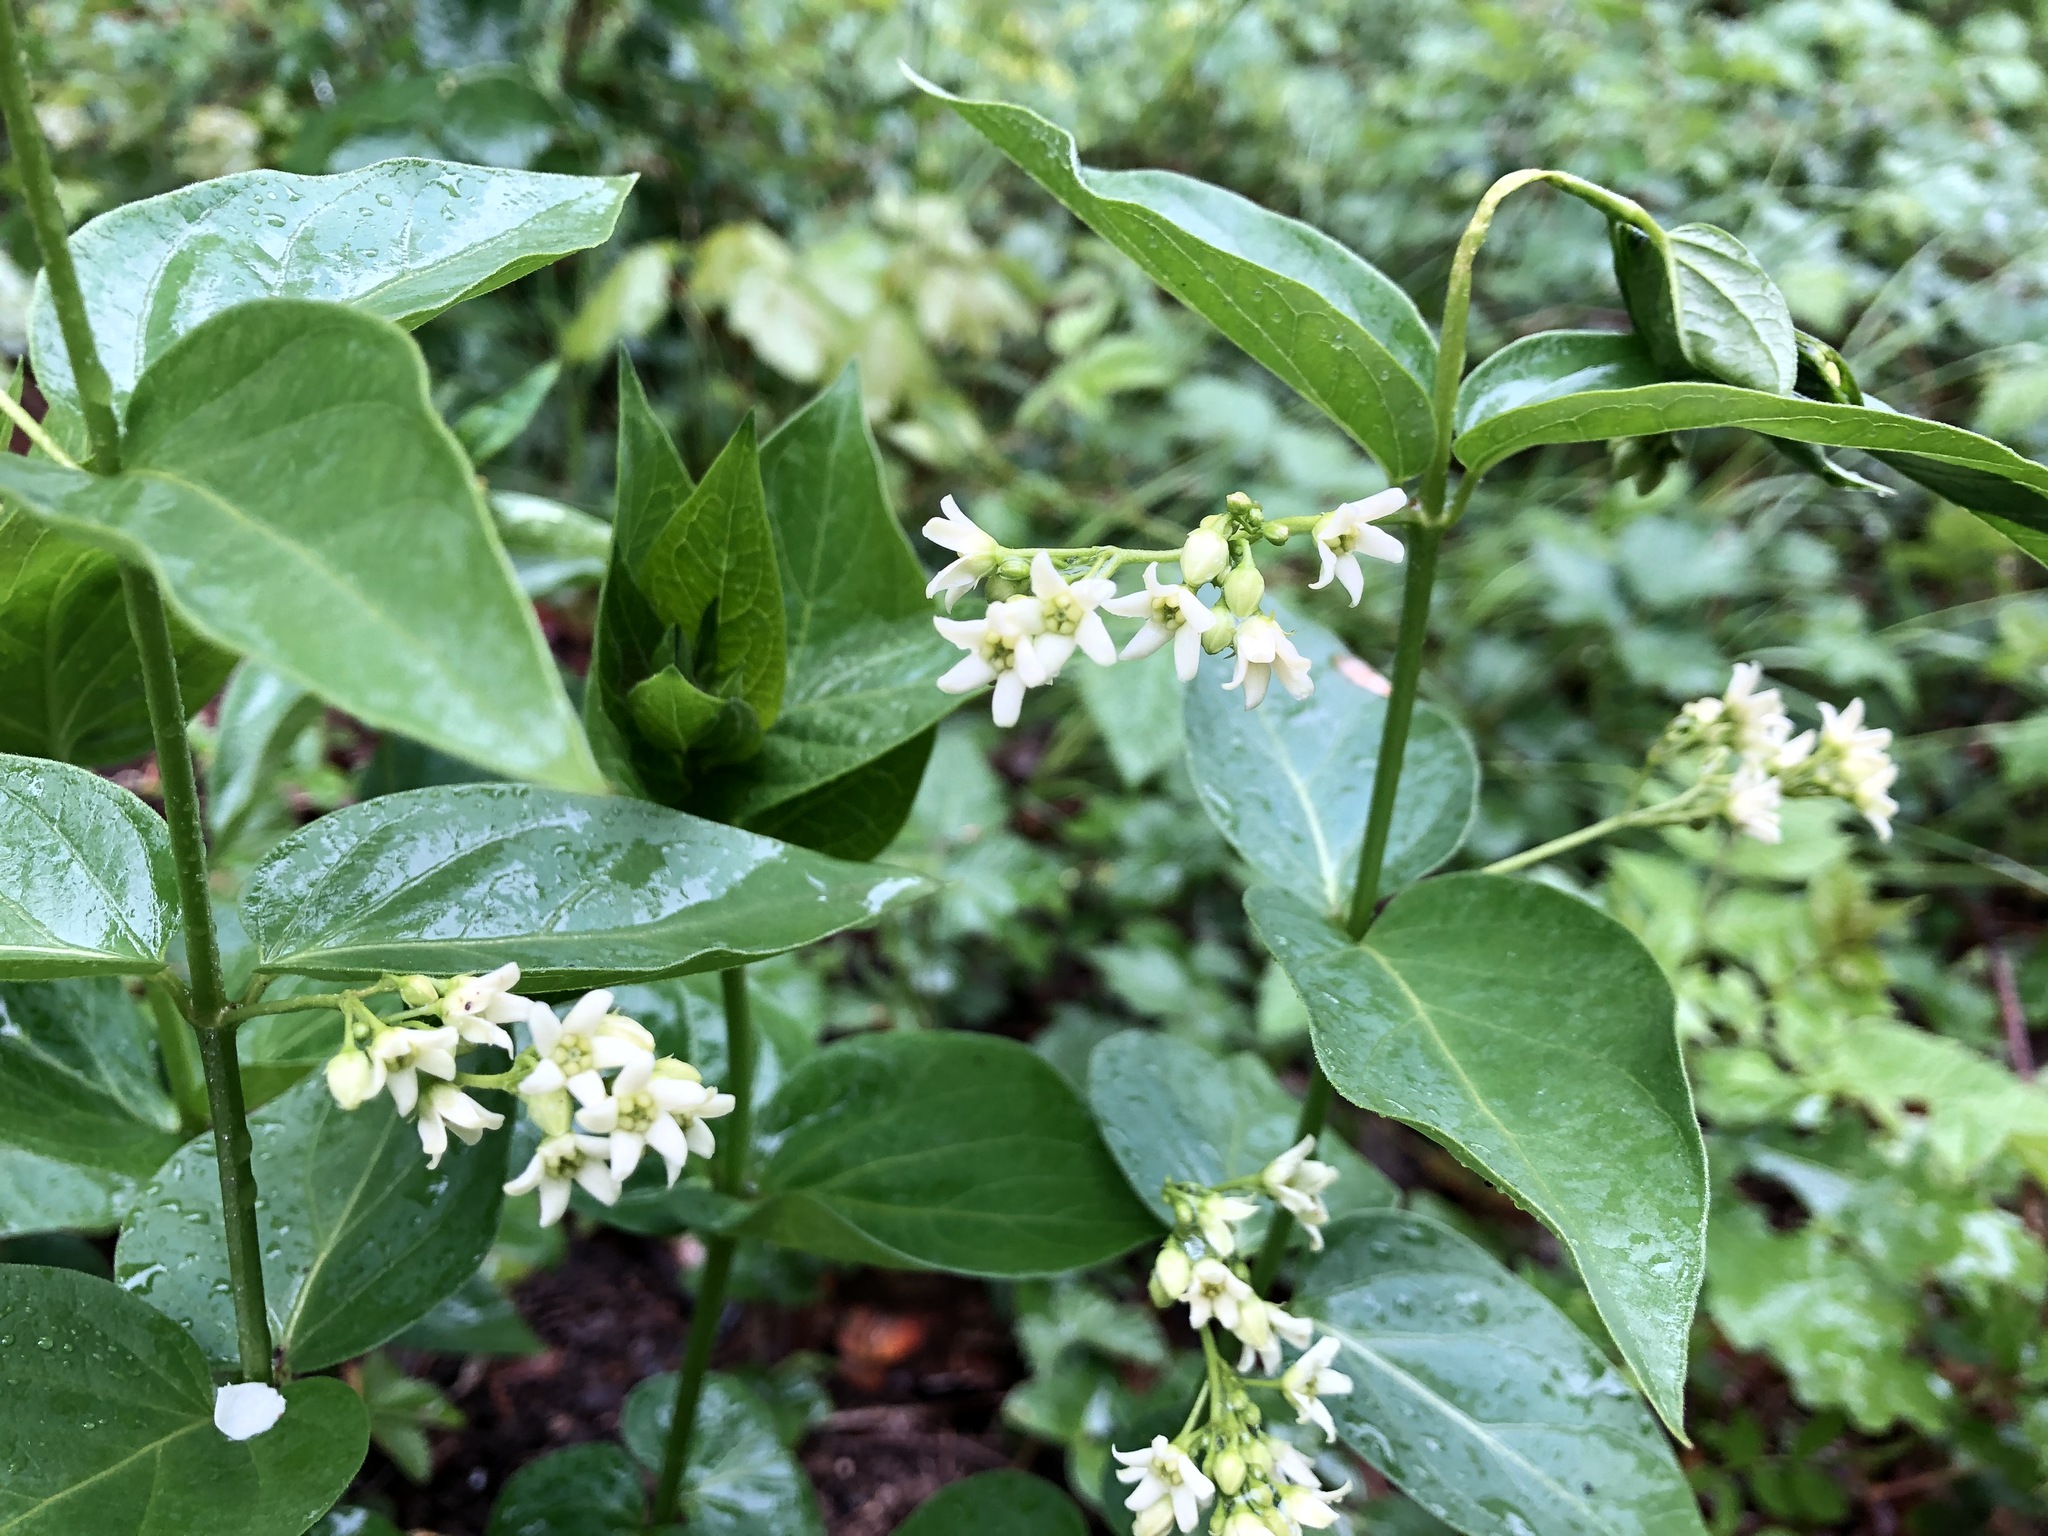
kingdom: Plantae
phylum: Tracheophyta
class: Magnoliopsida
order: Gentianales
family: Apocynaceae
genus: Vincetoxicum
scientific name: Vincetoxicum hirundinaria
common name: White swallowwort
